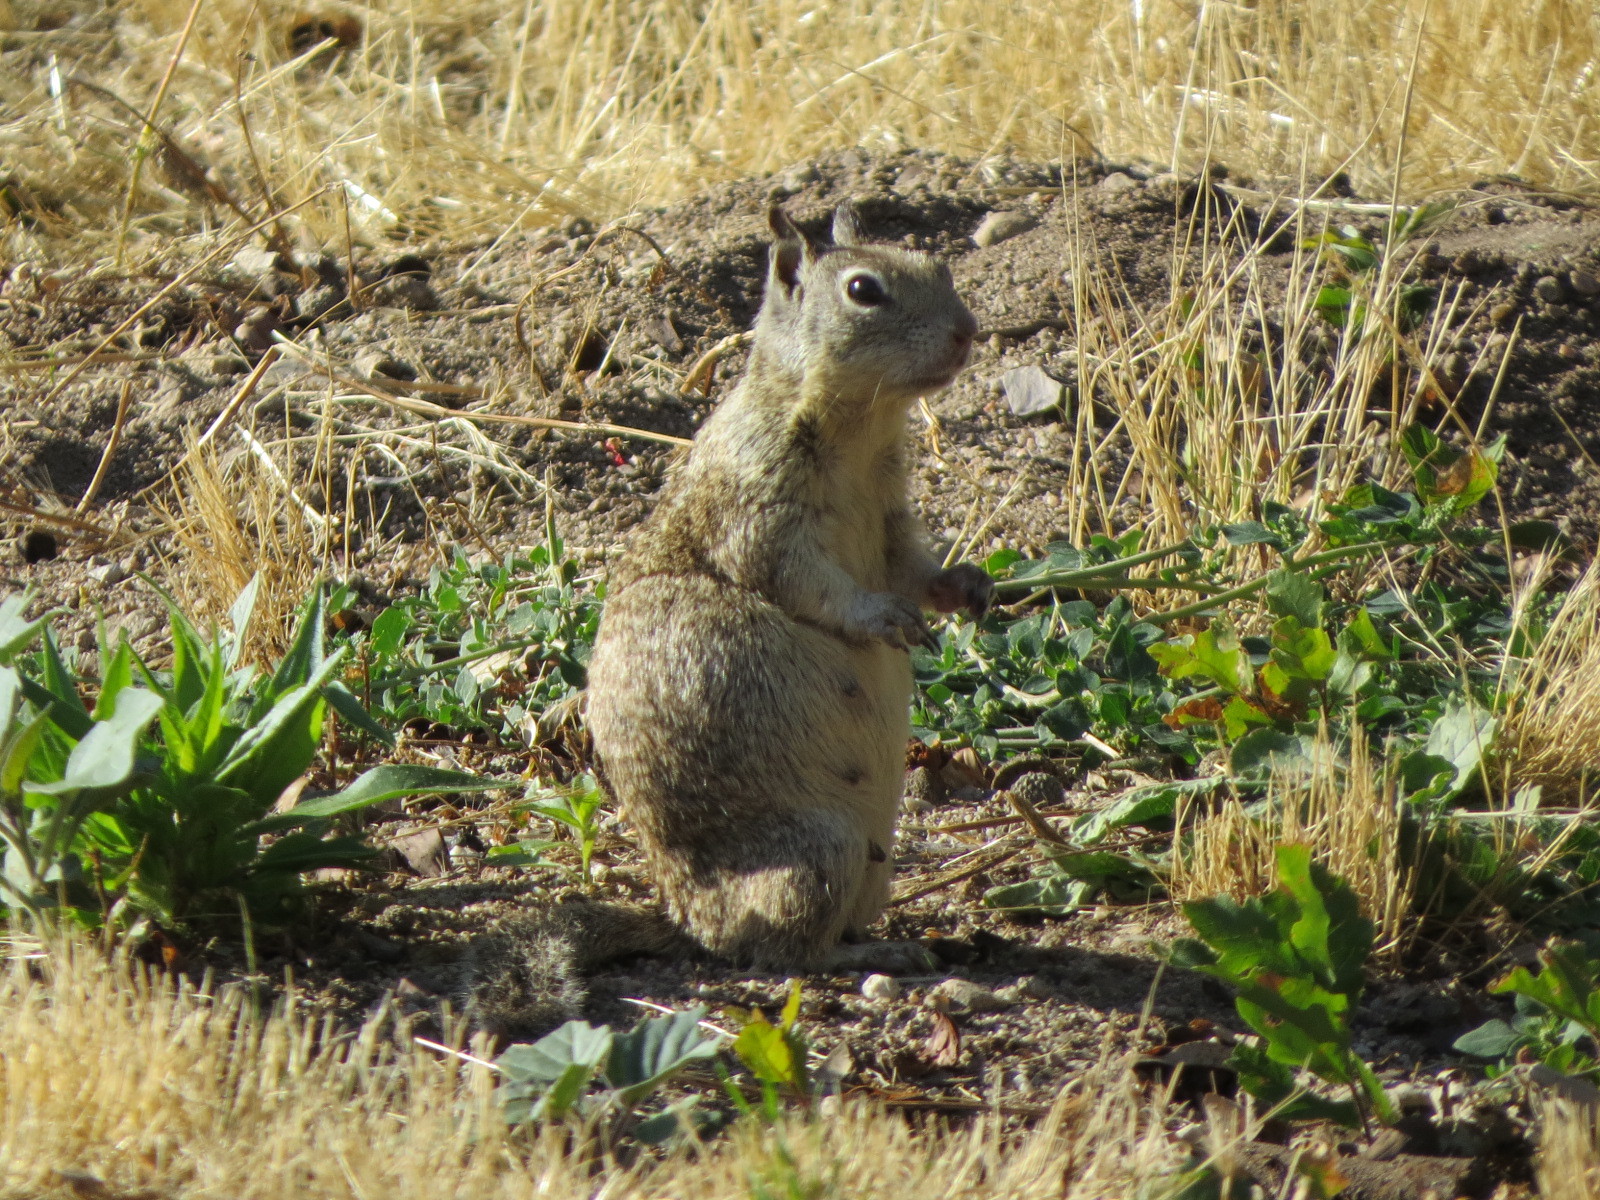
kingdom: Animalia
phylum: Chordata
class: Mammalia
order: Rodentia
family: Sciuridae
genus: Otospermophilus
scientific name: Otospermophilus beecheyi
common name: California ground squirrel
